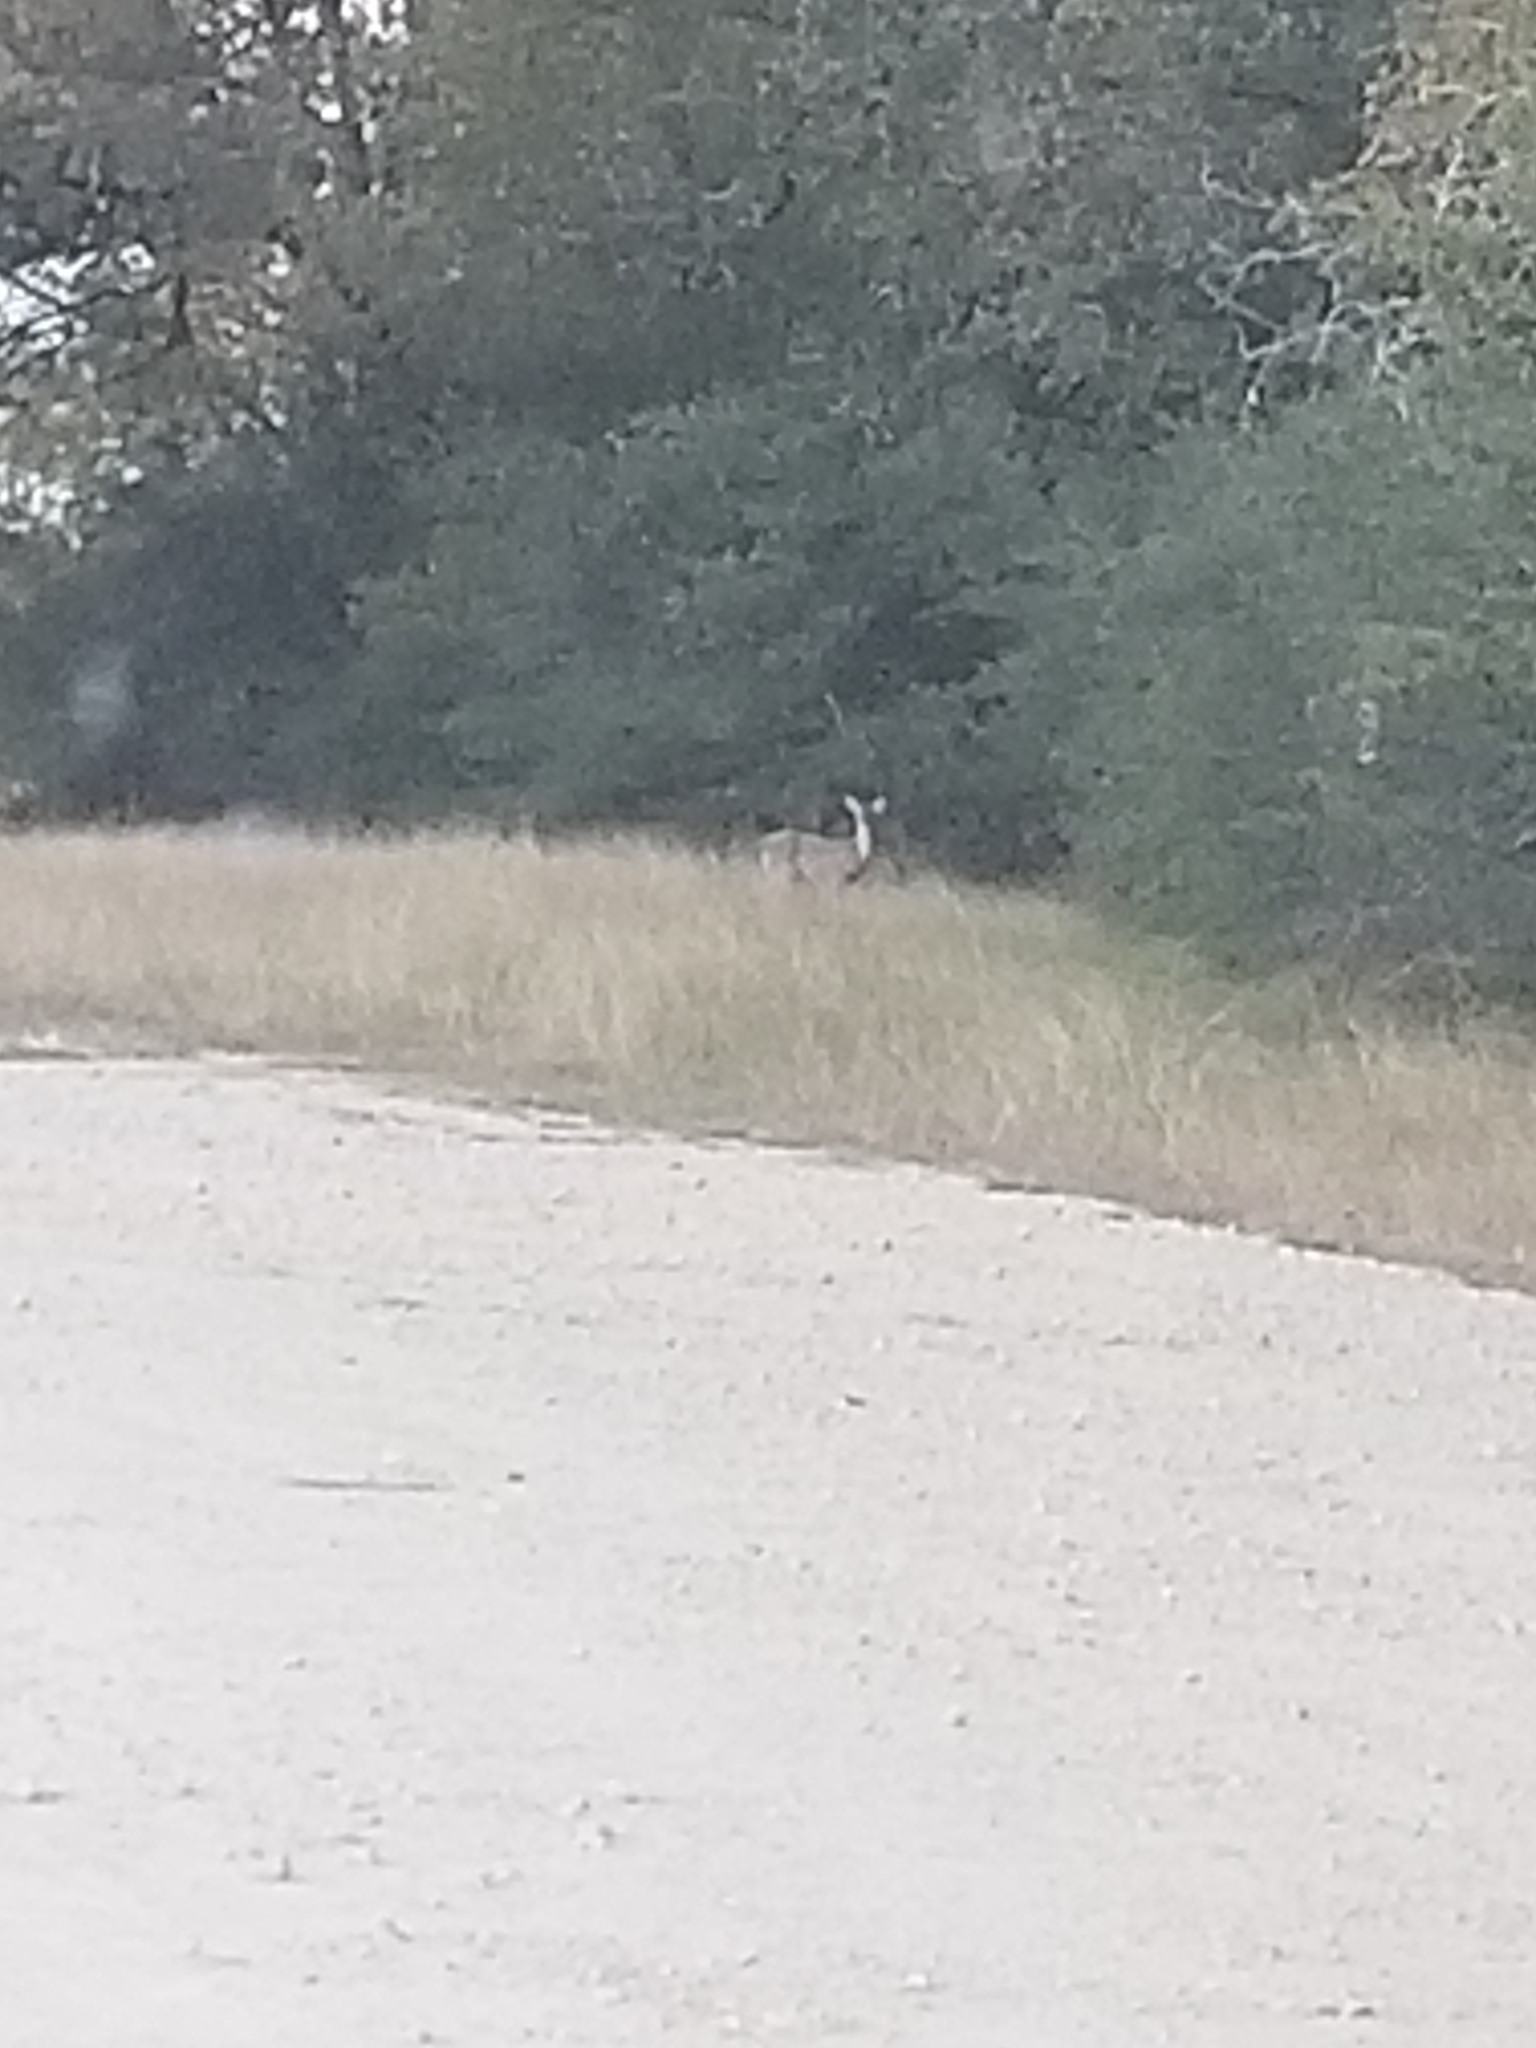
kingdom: Animalia
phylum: Chordata
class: Mammalia
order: Artiodactyla
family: Cervidae
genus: Odocoileus
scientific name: Odocoileus virginianus
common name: White-tailed deer
